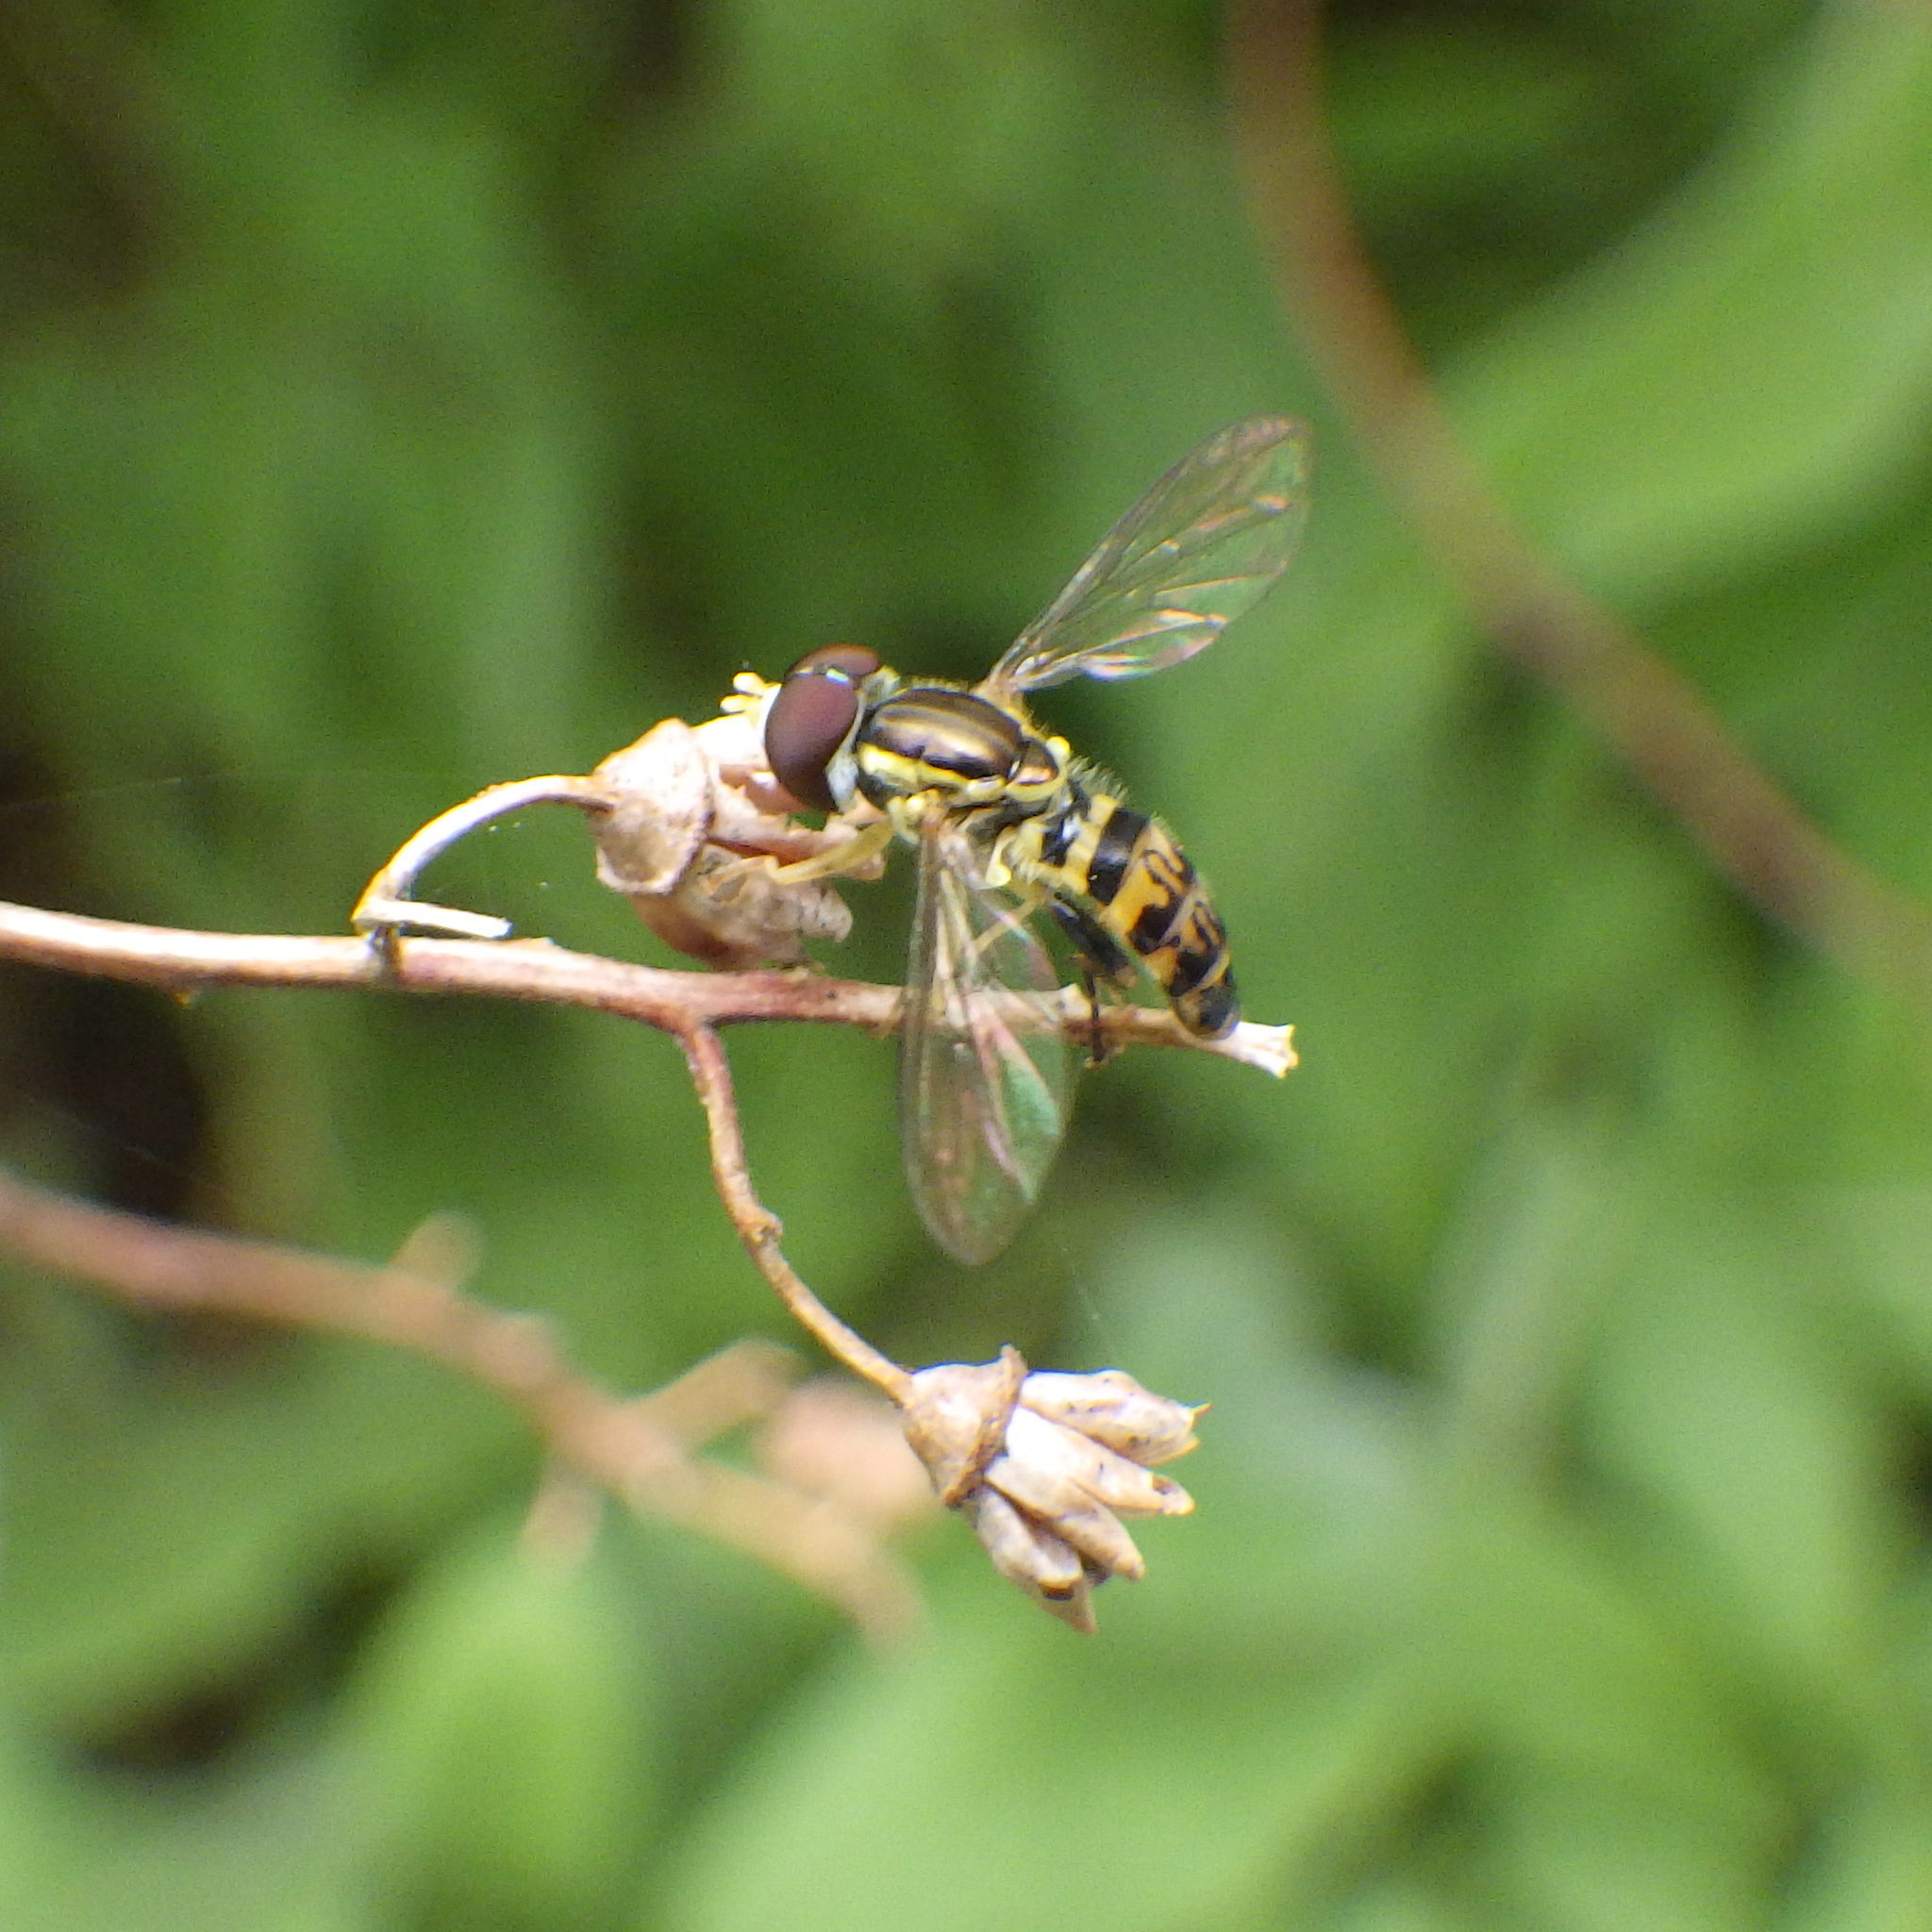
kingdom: Animalia
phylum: Arthropoda
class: Insecta
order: Diptera
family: Syrphidae
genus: Toxomerus
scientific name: Toxomerus geminatus
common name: Eastern calligrapher
